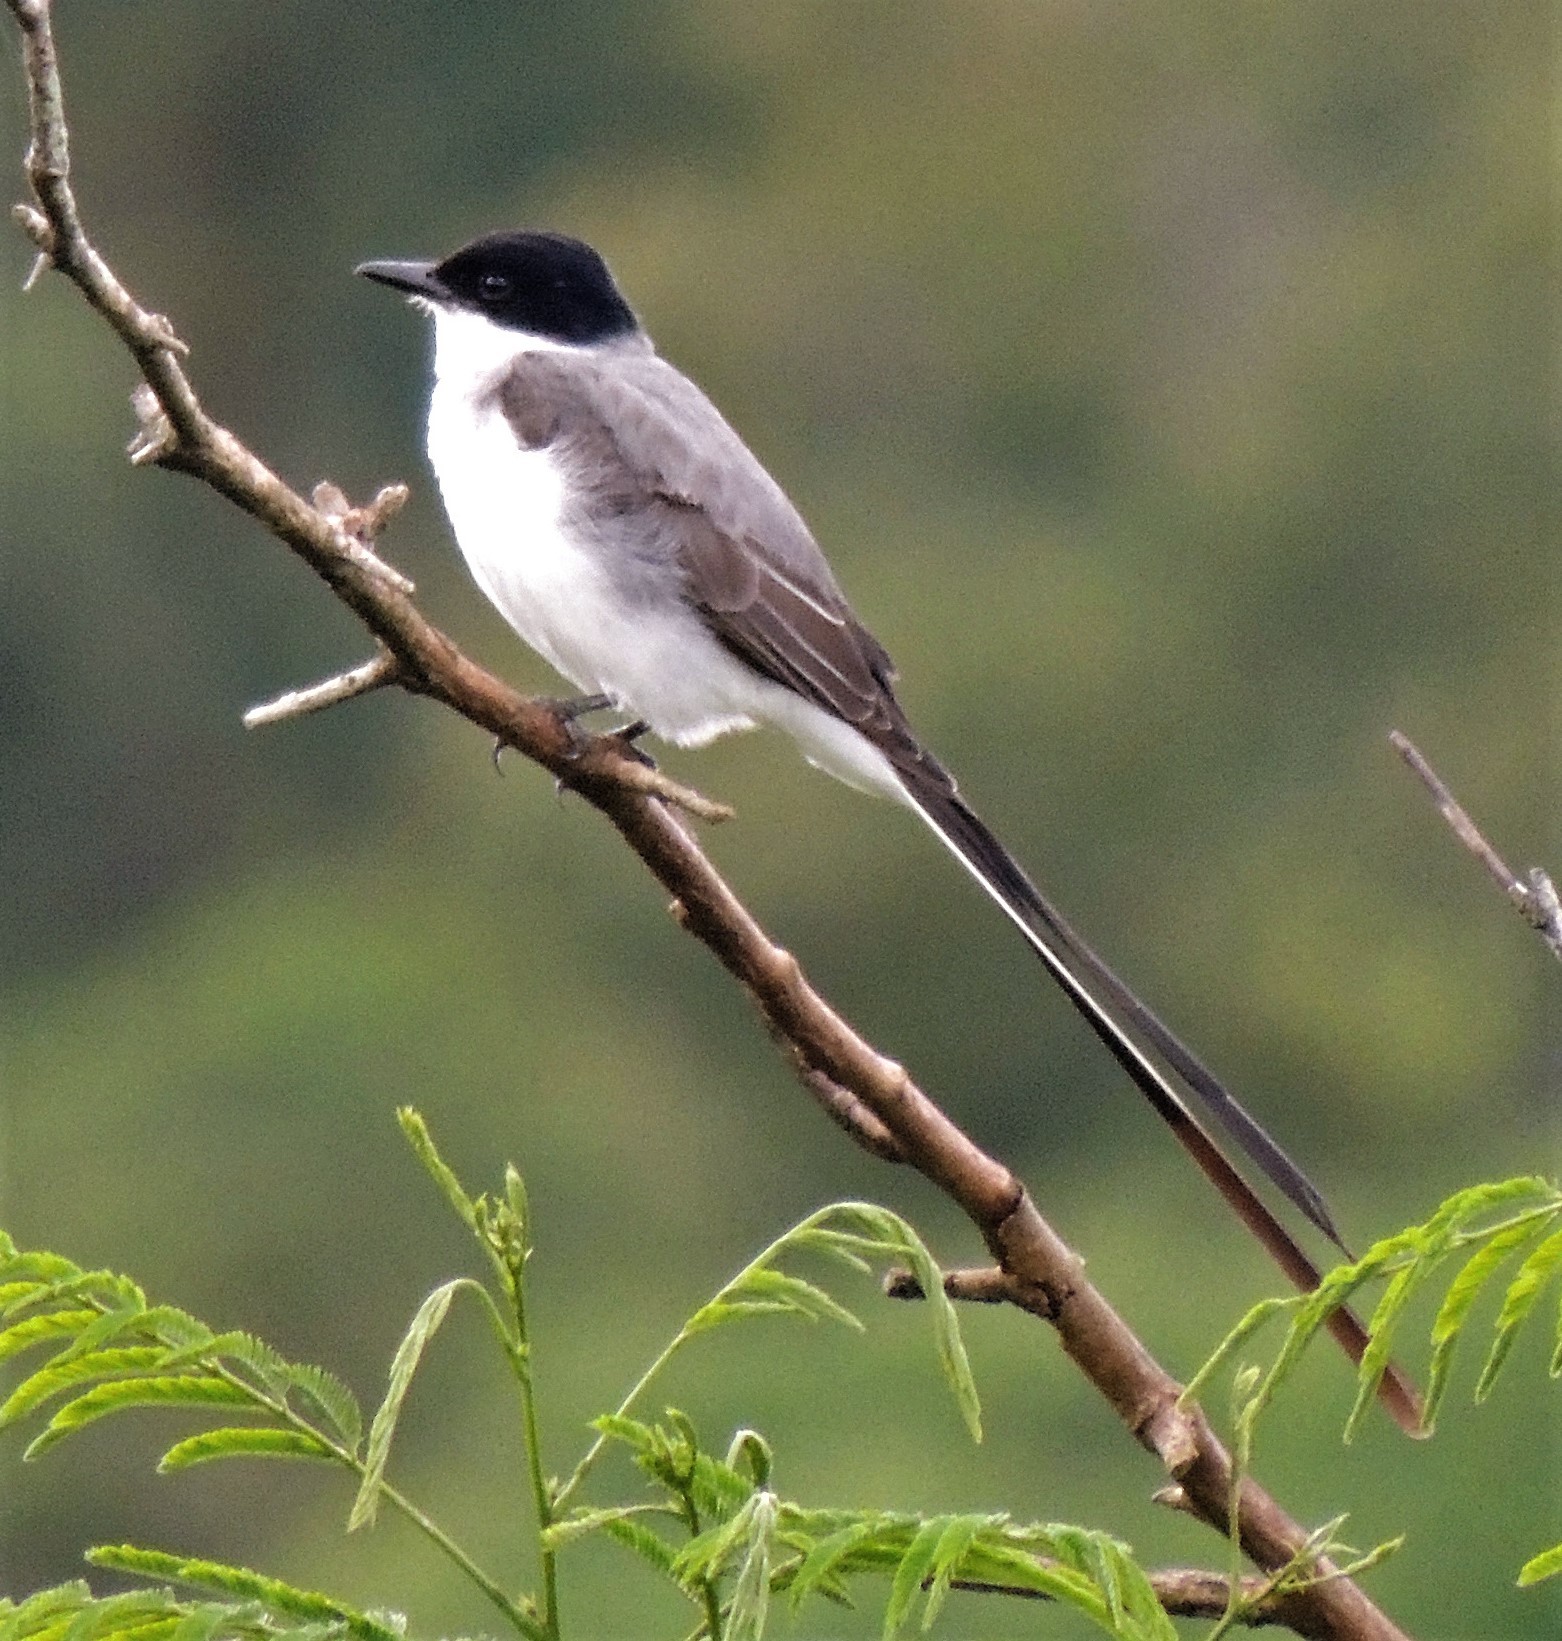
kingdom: Animalia
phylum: Chordata
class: Aves
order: Passeriformes
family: Tyrannidae
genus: Tyrannus
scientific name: Tyrannus savana
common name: Fork-tailed flycatcher
